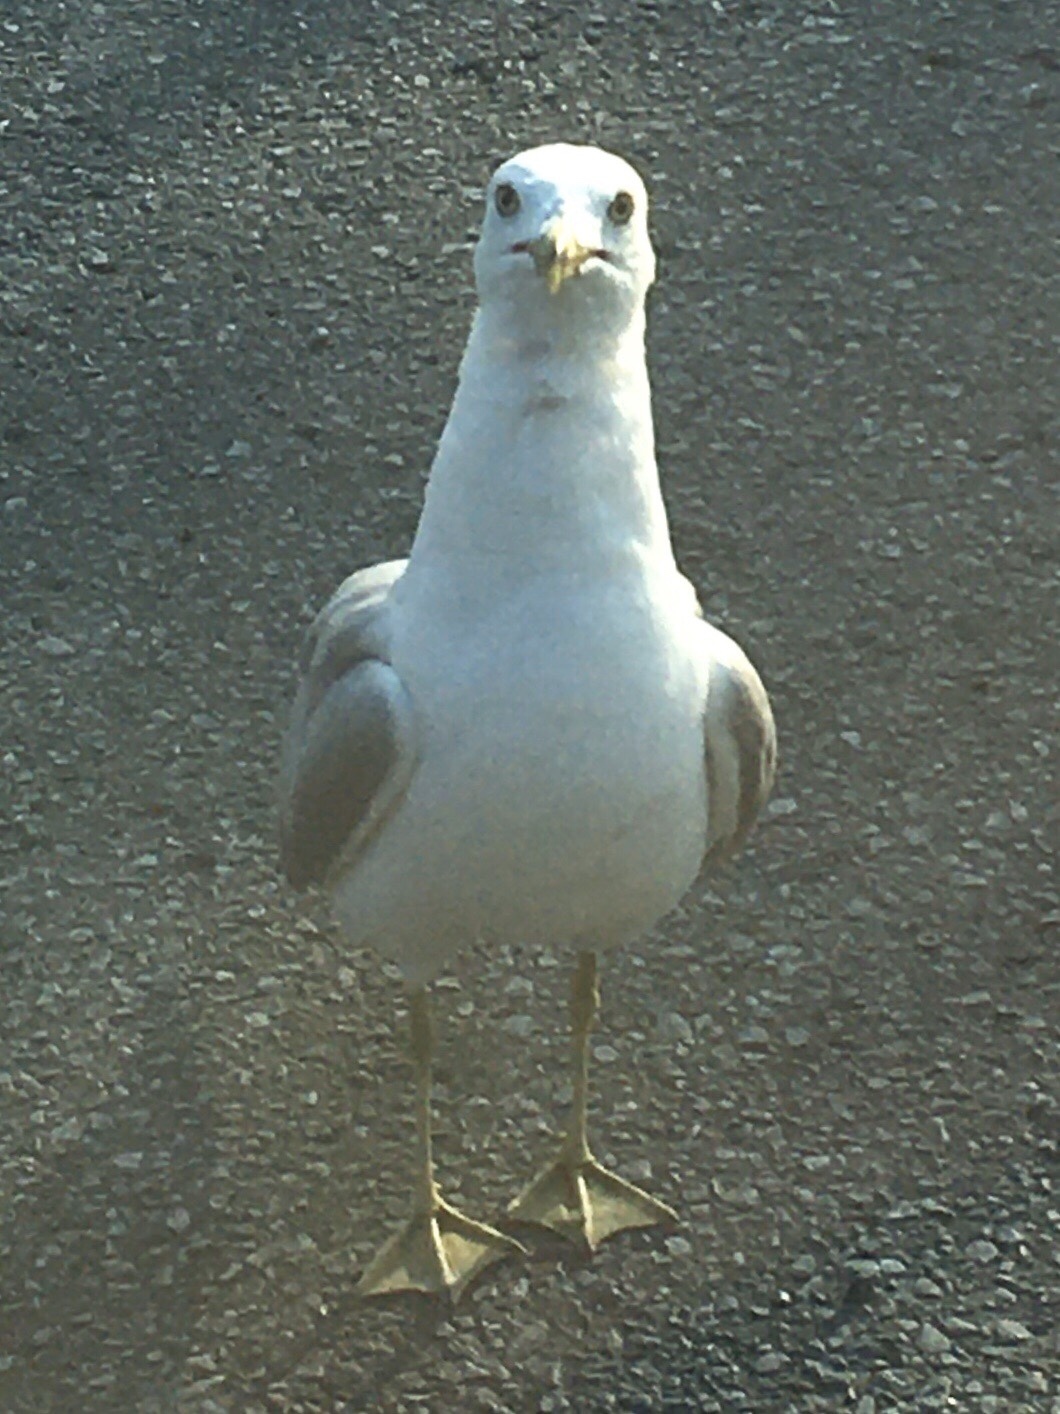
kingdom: Animalia
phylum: Chordata
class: Aves
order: Charadriiformes
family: Laridae
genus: Larus
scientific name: Larus delawarensis
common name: Ring-billed gull
